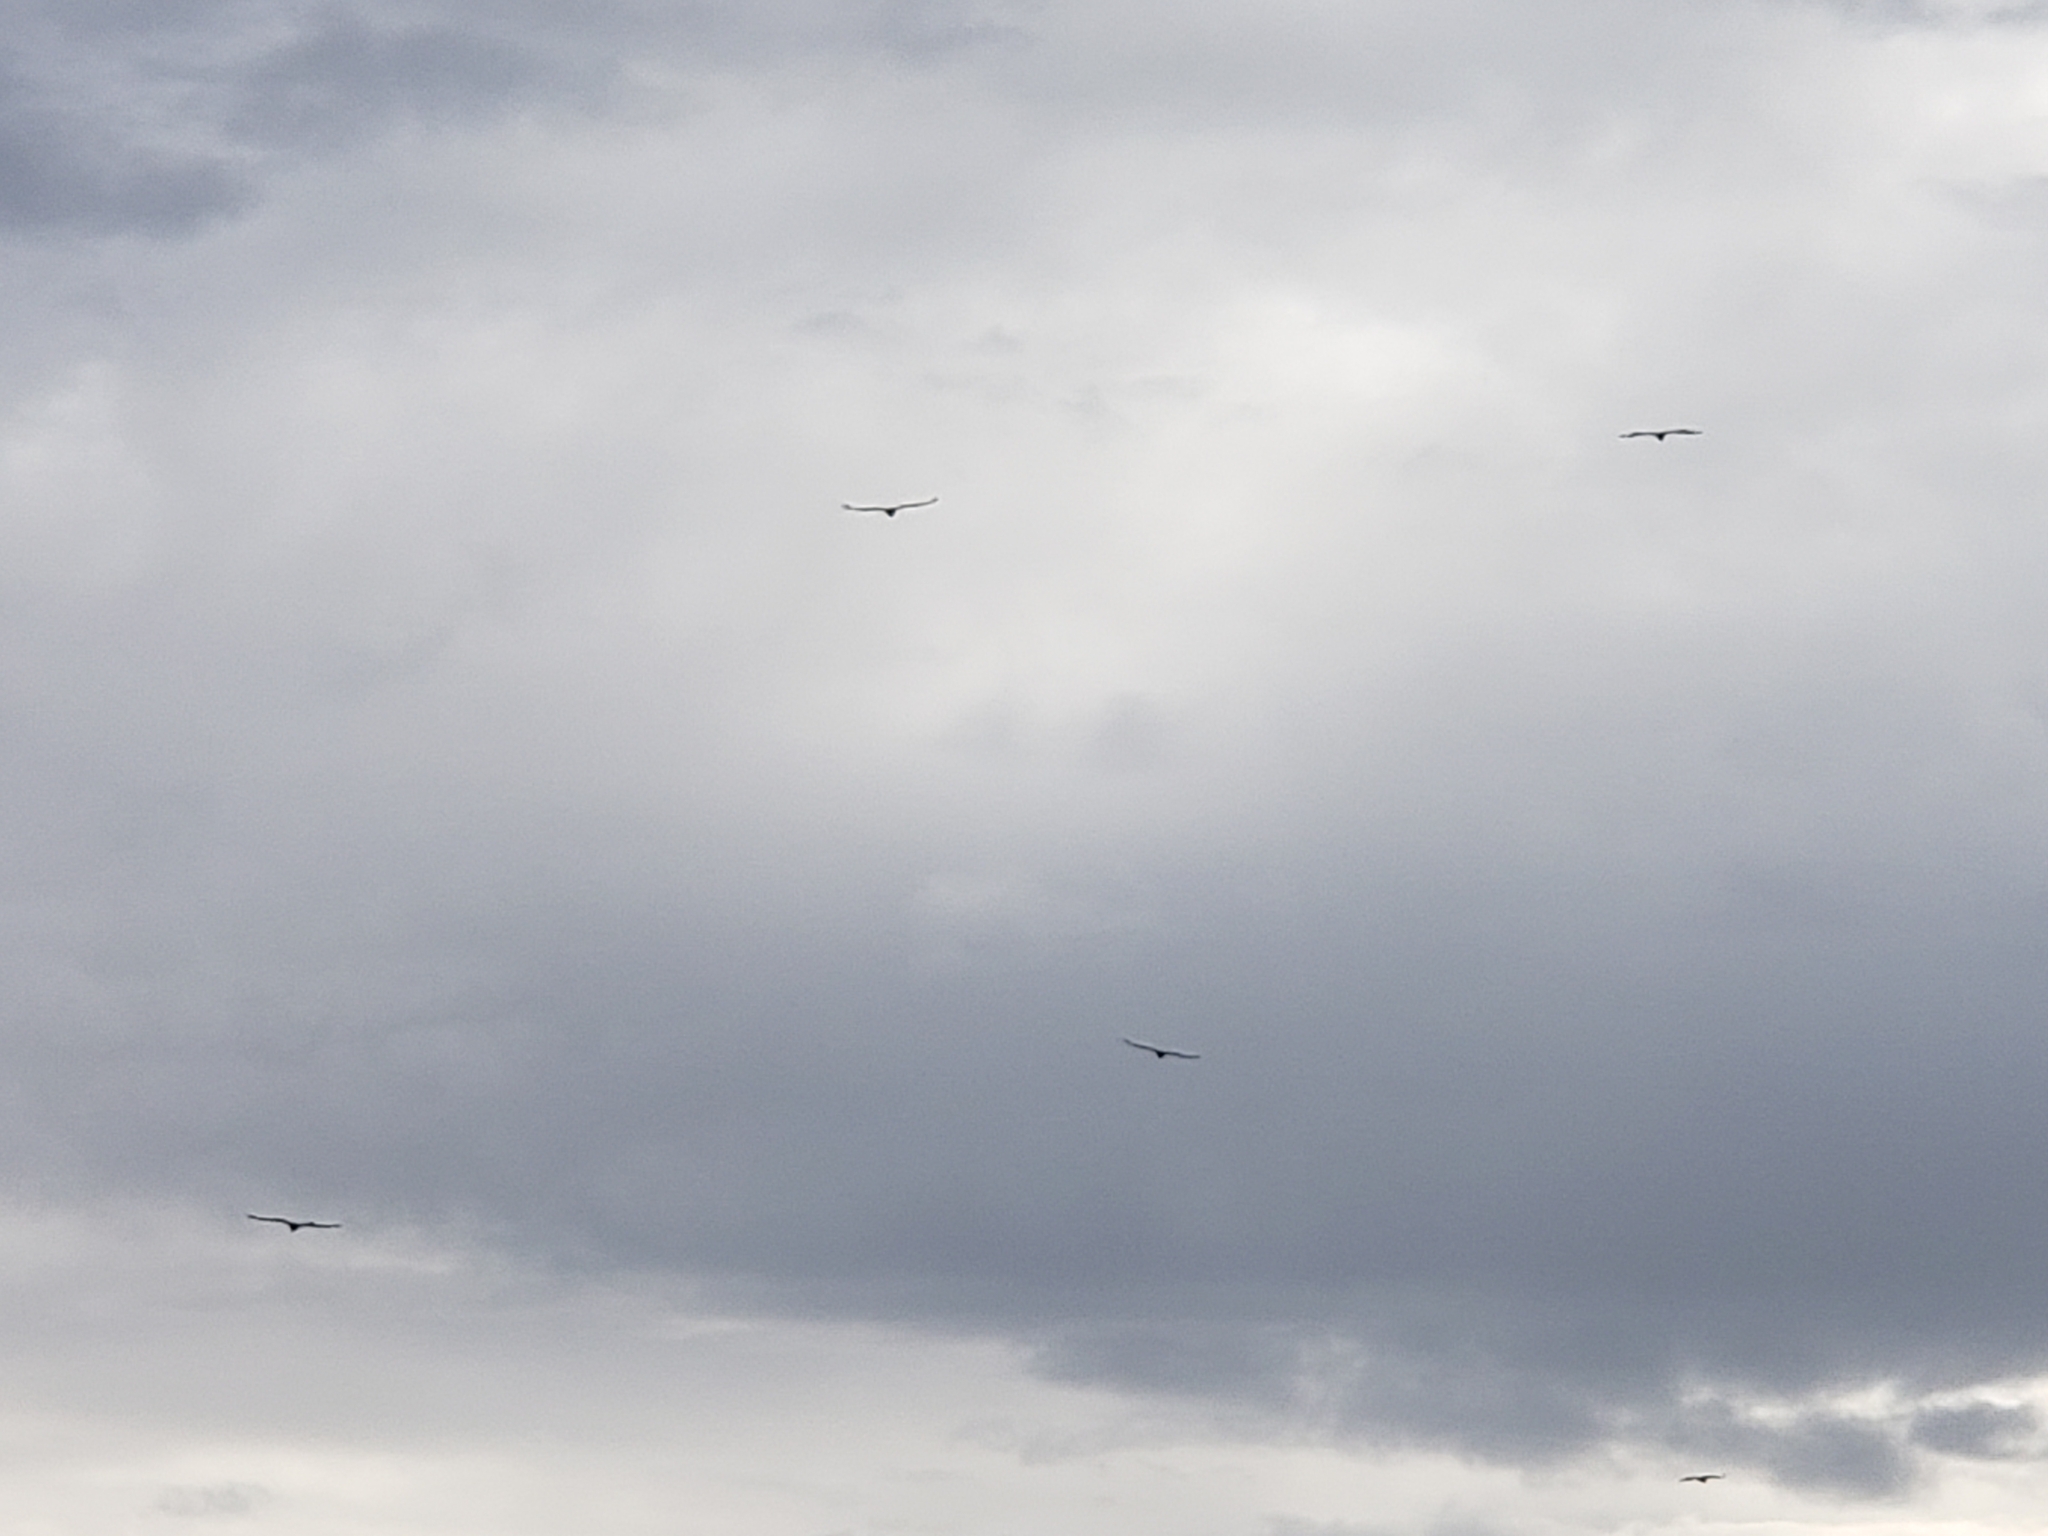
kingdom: Animalia
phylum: Chordata
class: Aves
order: Accipitriformes
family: Accipitridae
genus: Gyps
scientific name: Gyps fulvus
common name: Griffon vulture
